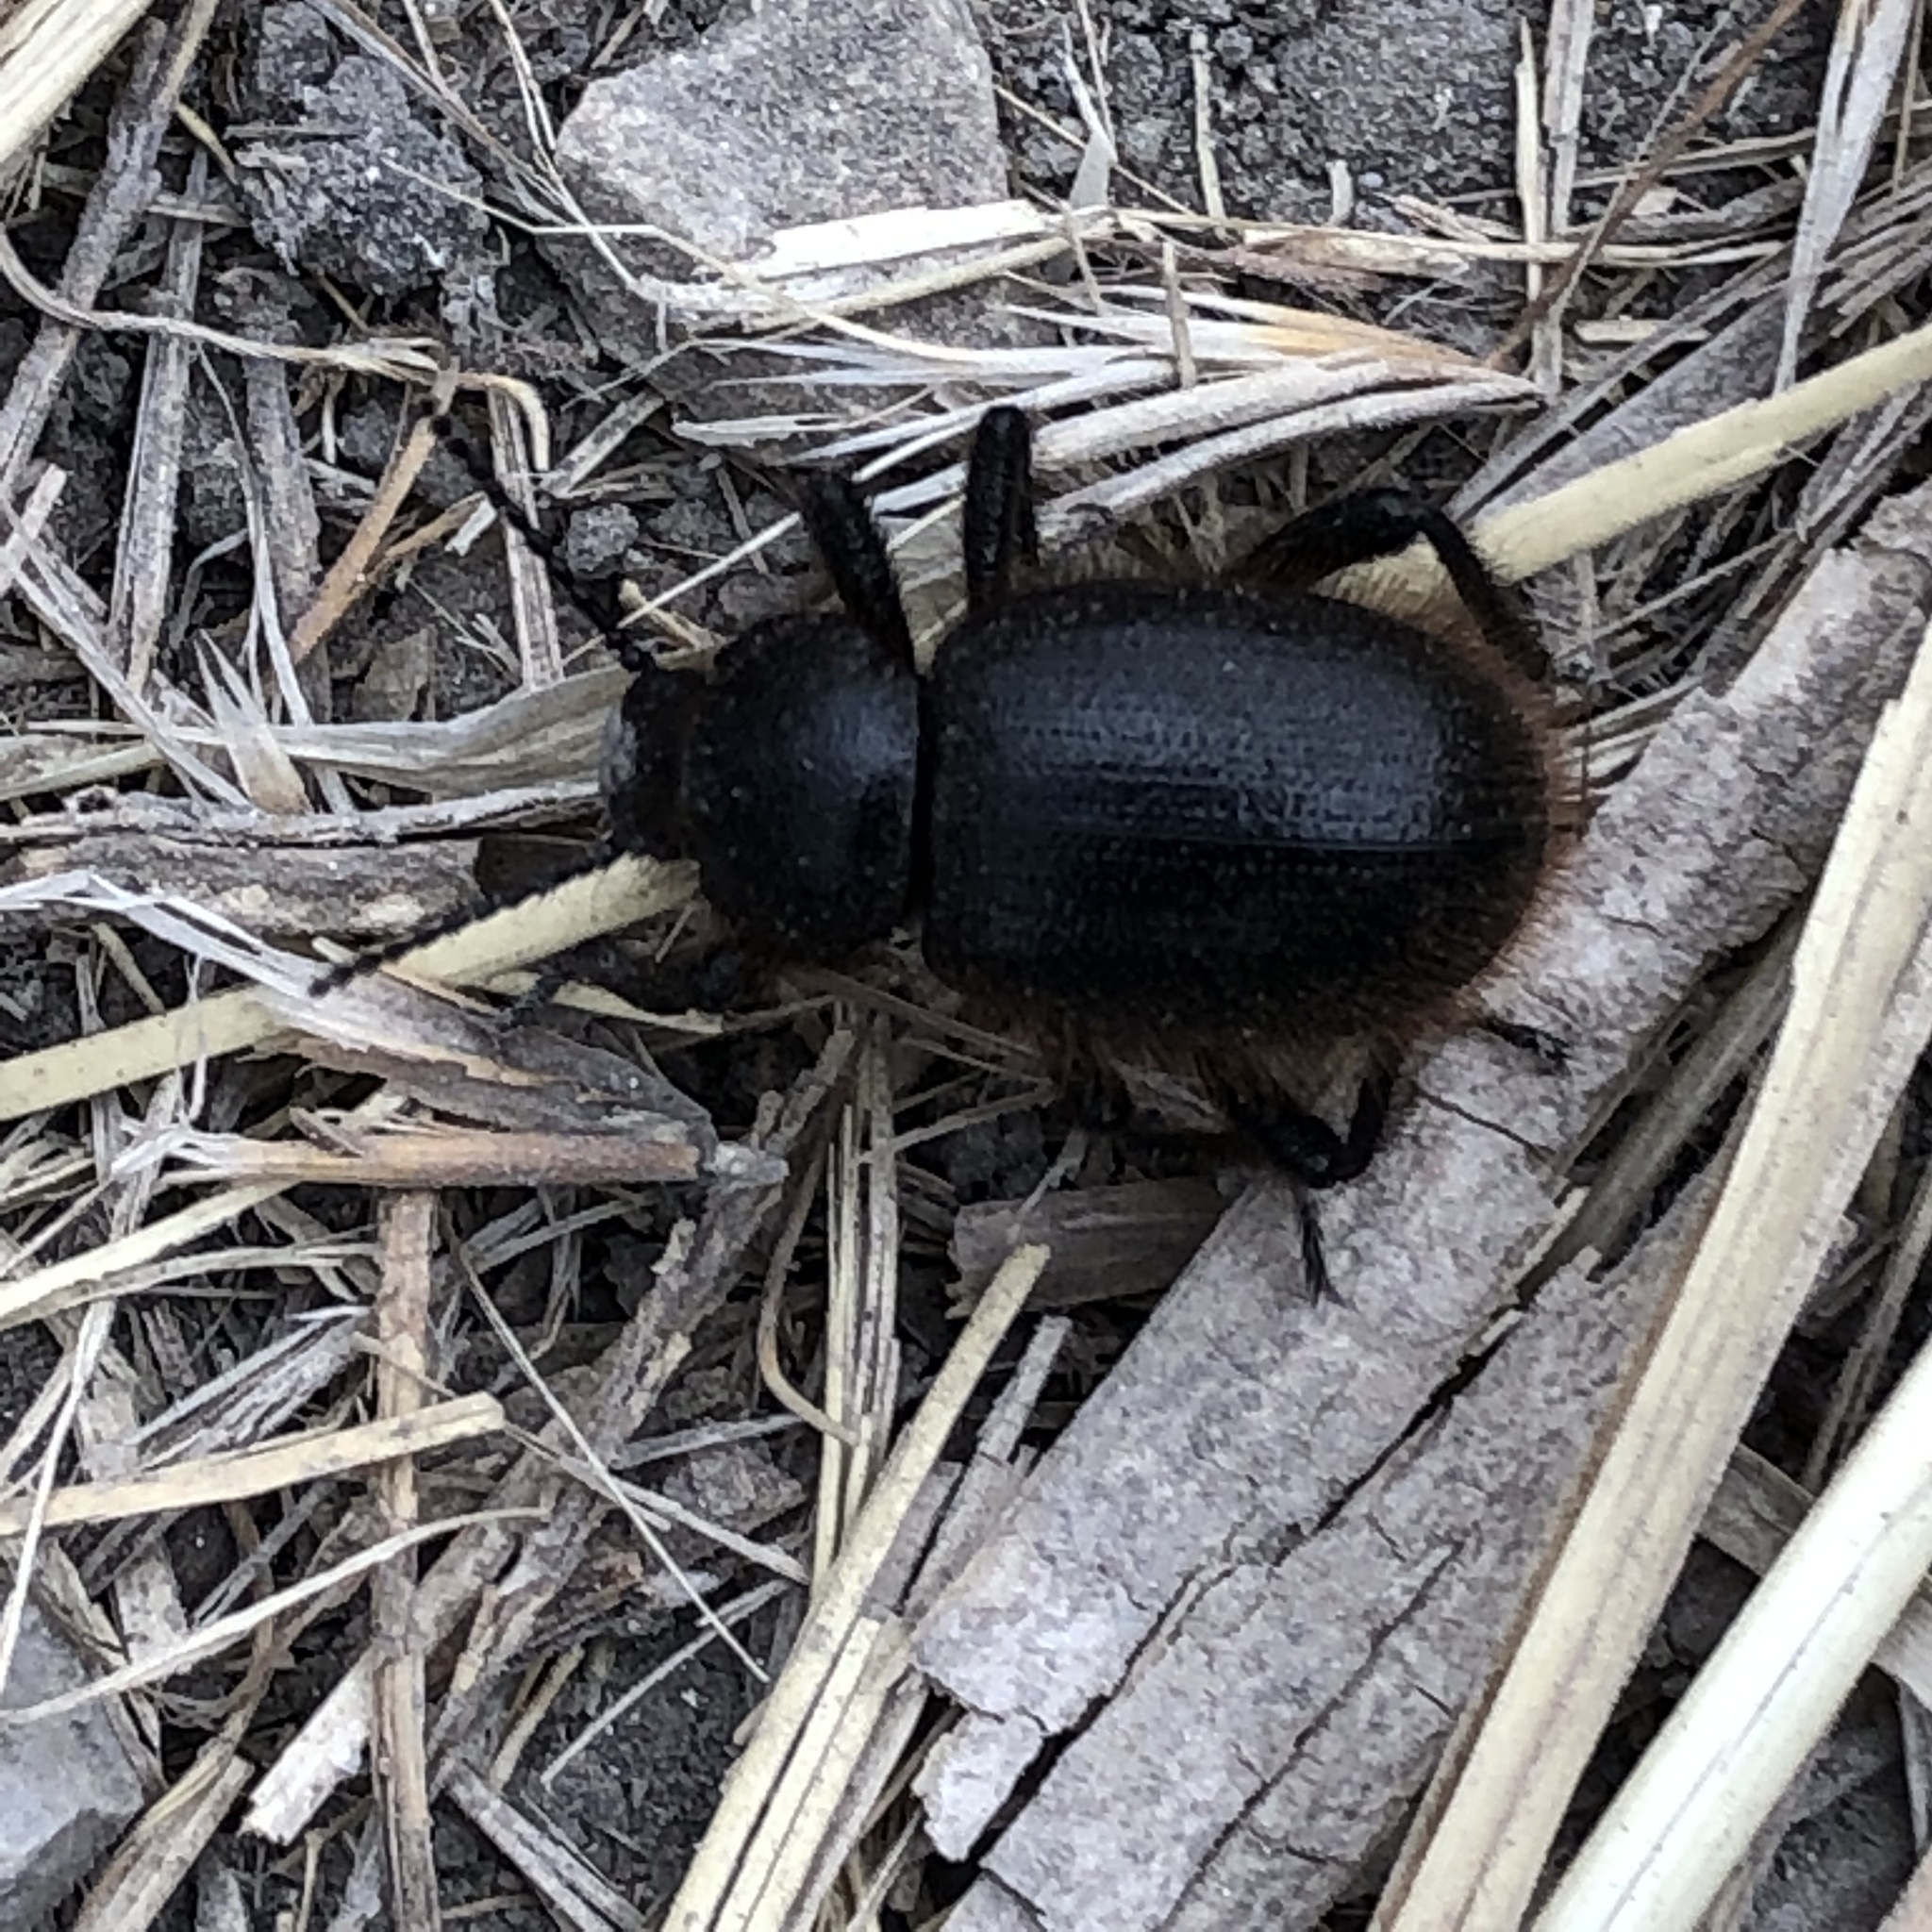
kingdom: Animalia
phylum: Arthropoda
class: Insecta
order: Coleoptera
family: Tenebrionidae
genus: Eleodes
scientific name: Eleodes osculans
